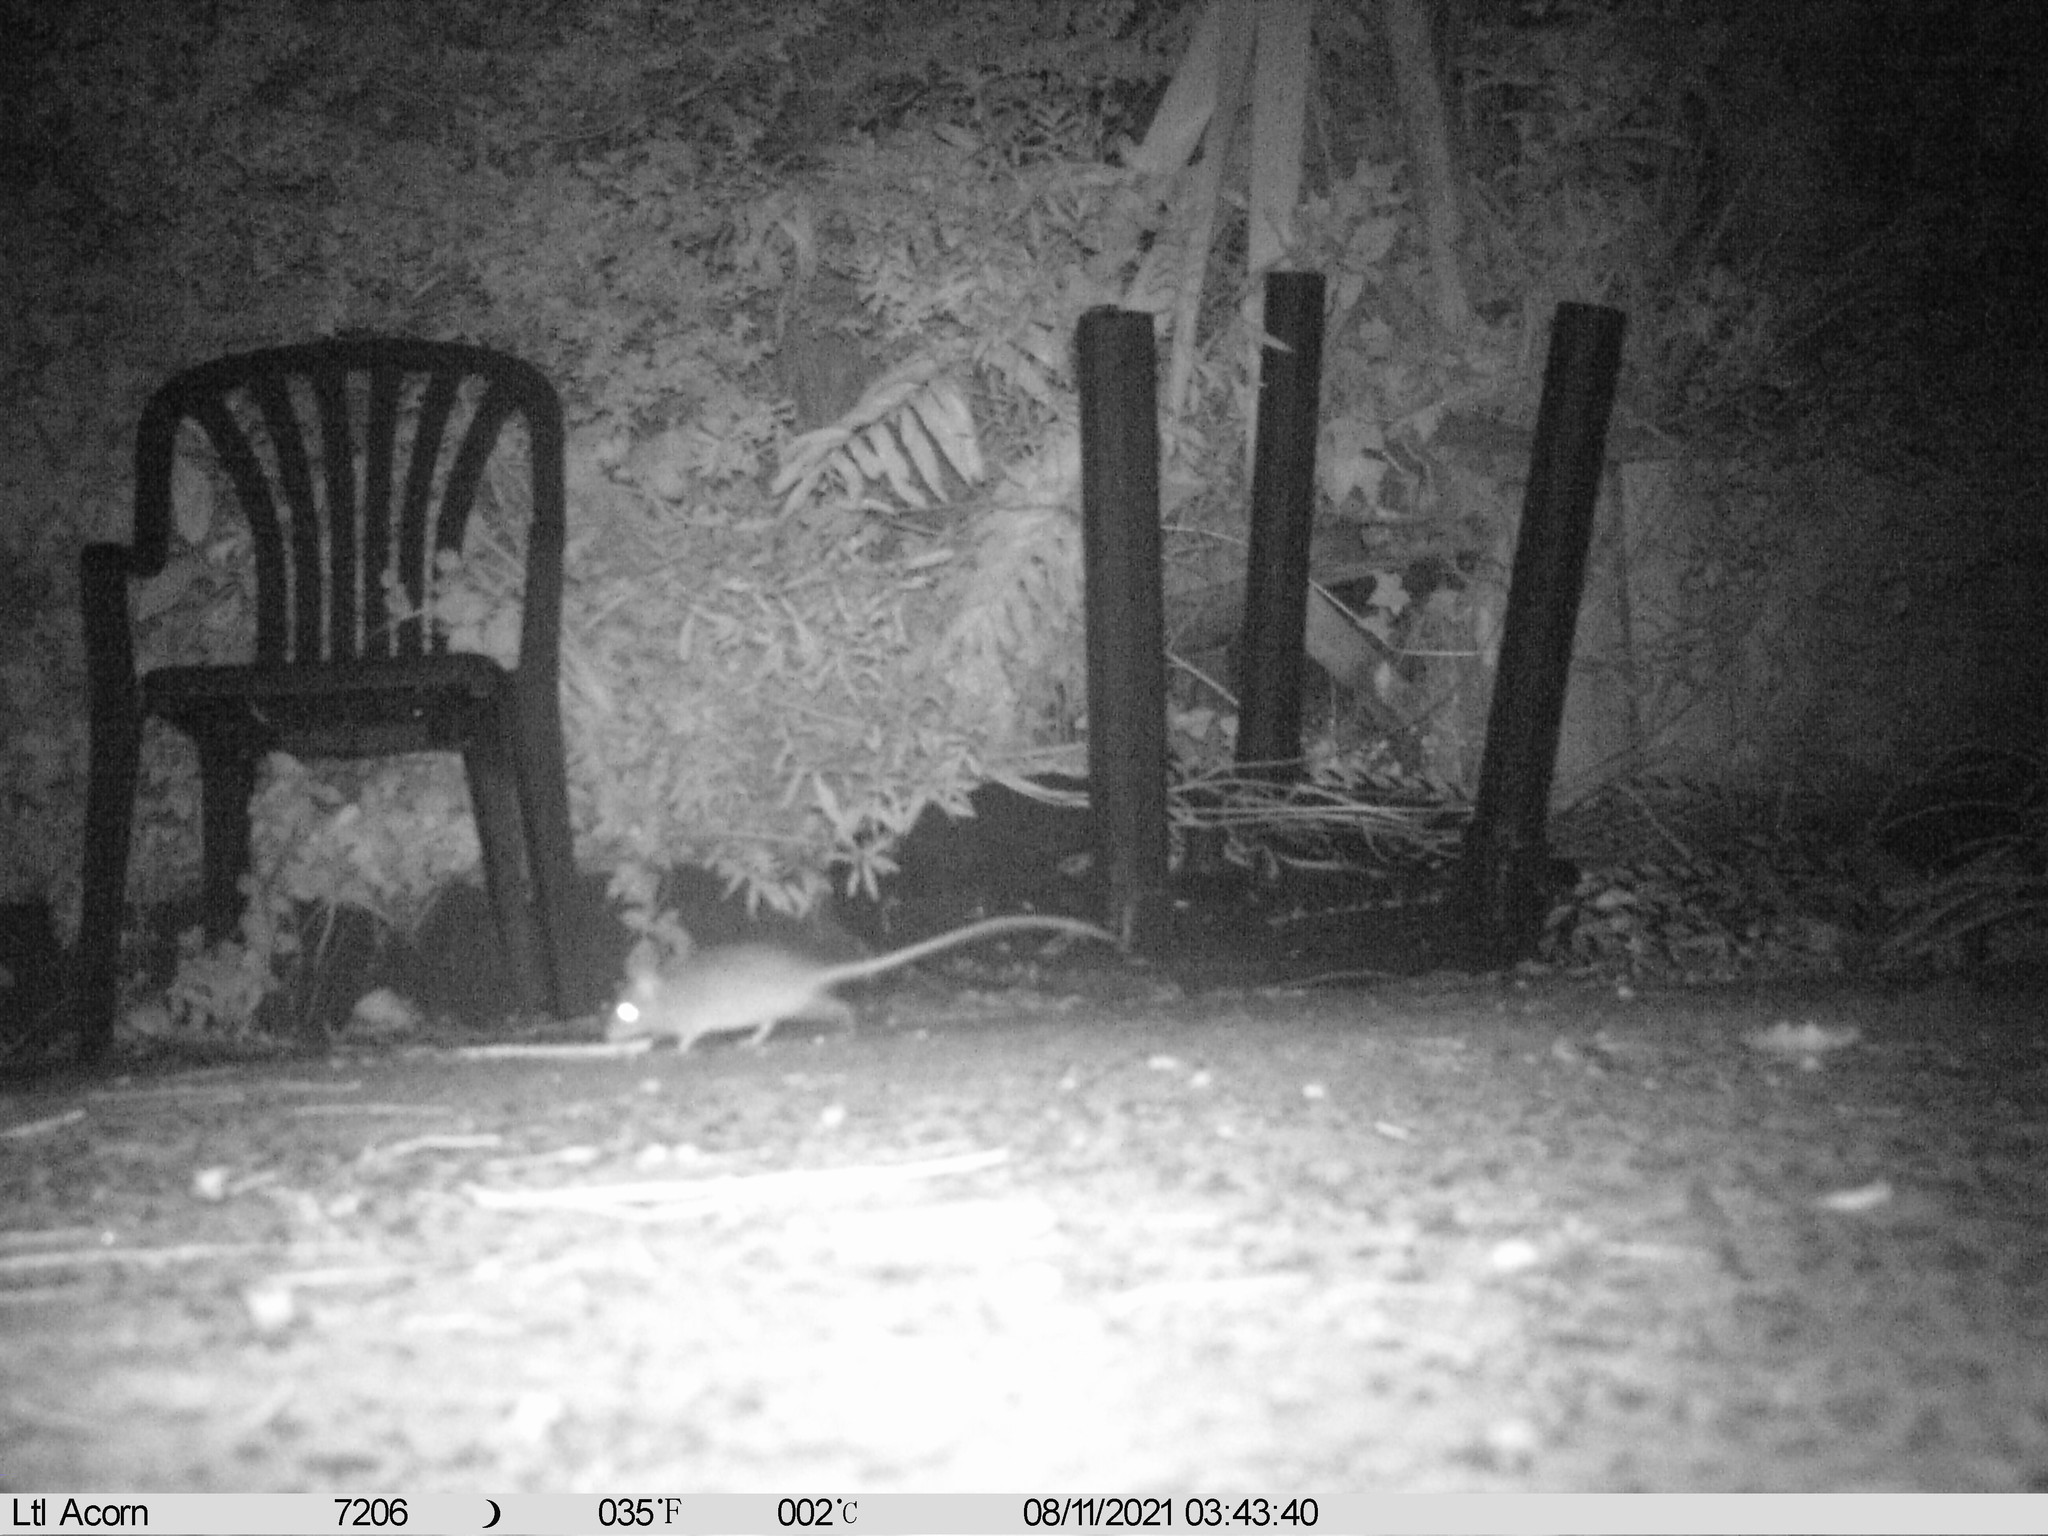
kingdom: Animalia
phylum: Chordata
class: Mammalia
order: Rodentia
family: Muridae
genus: Mus
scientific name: Mus musculus
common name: House mouse
